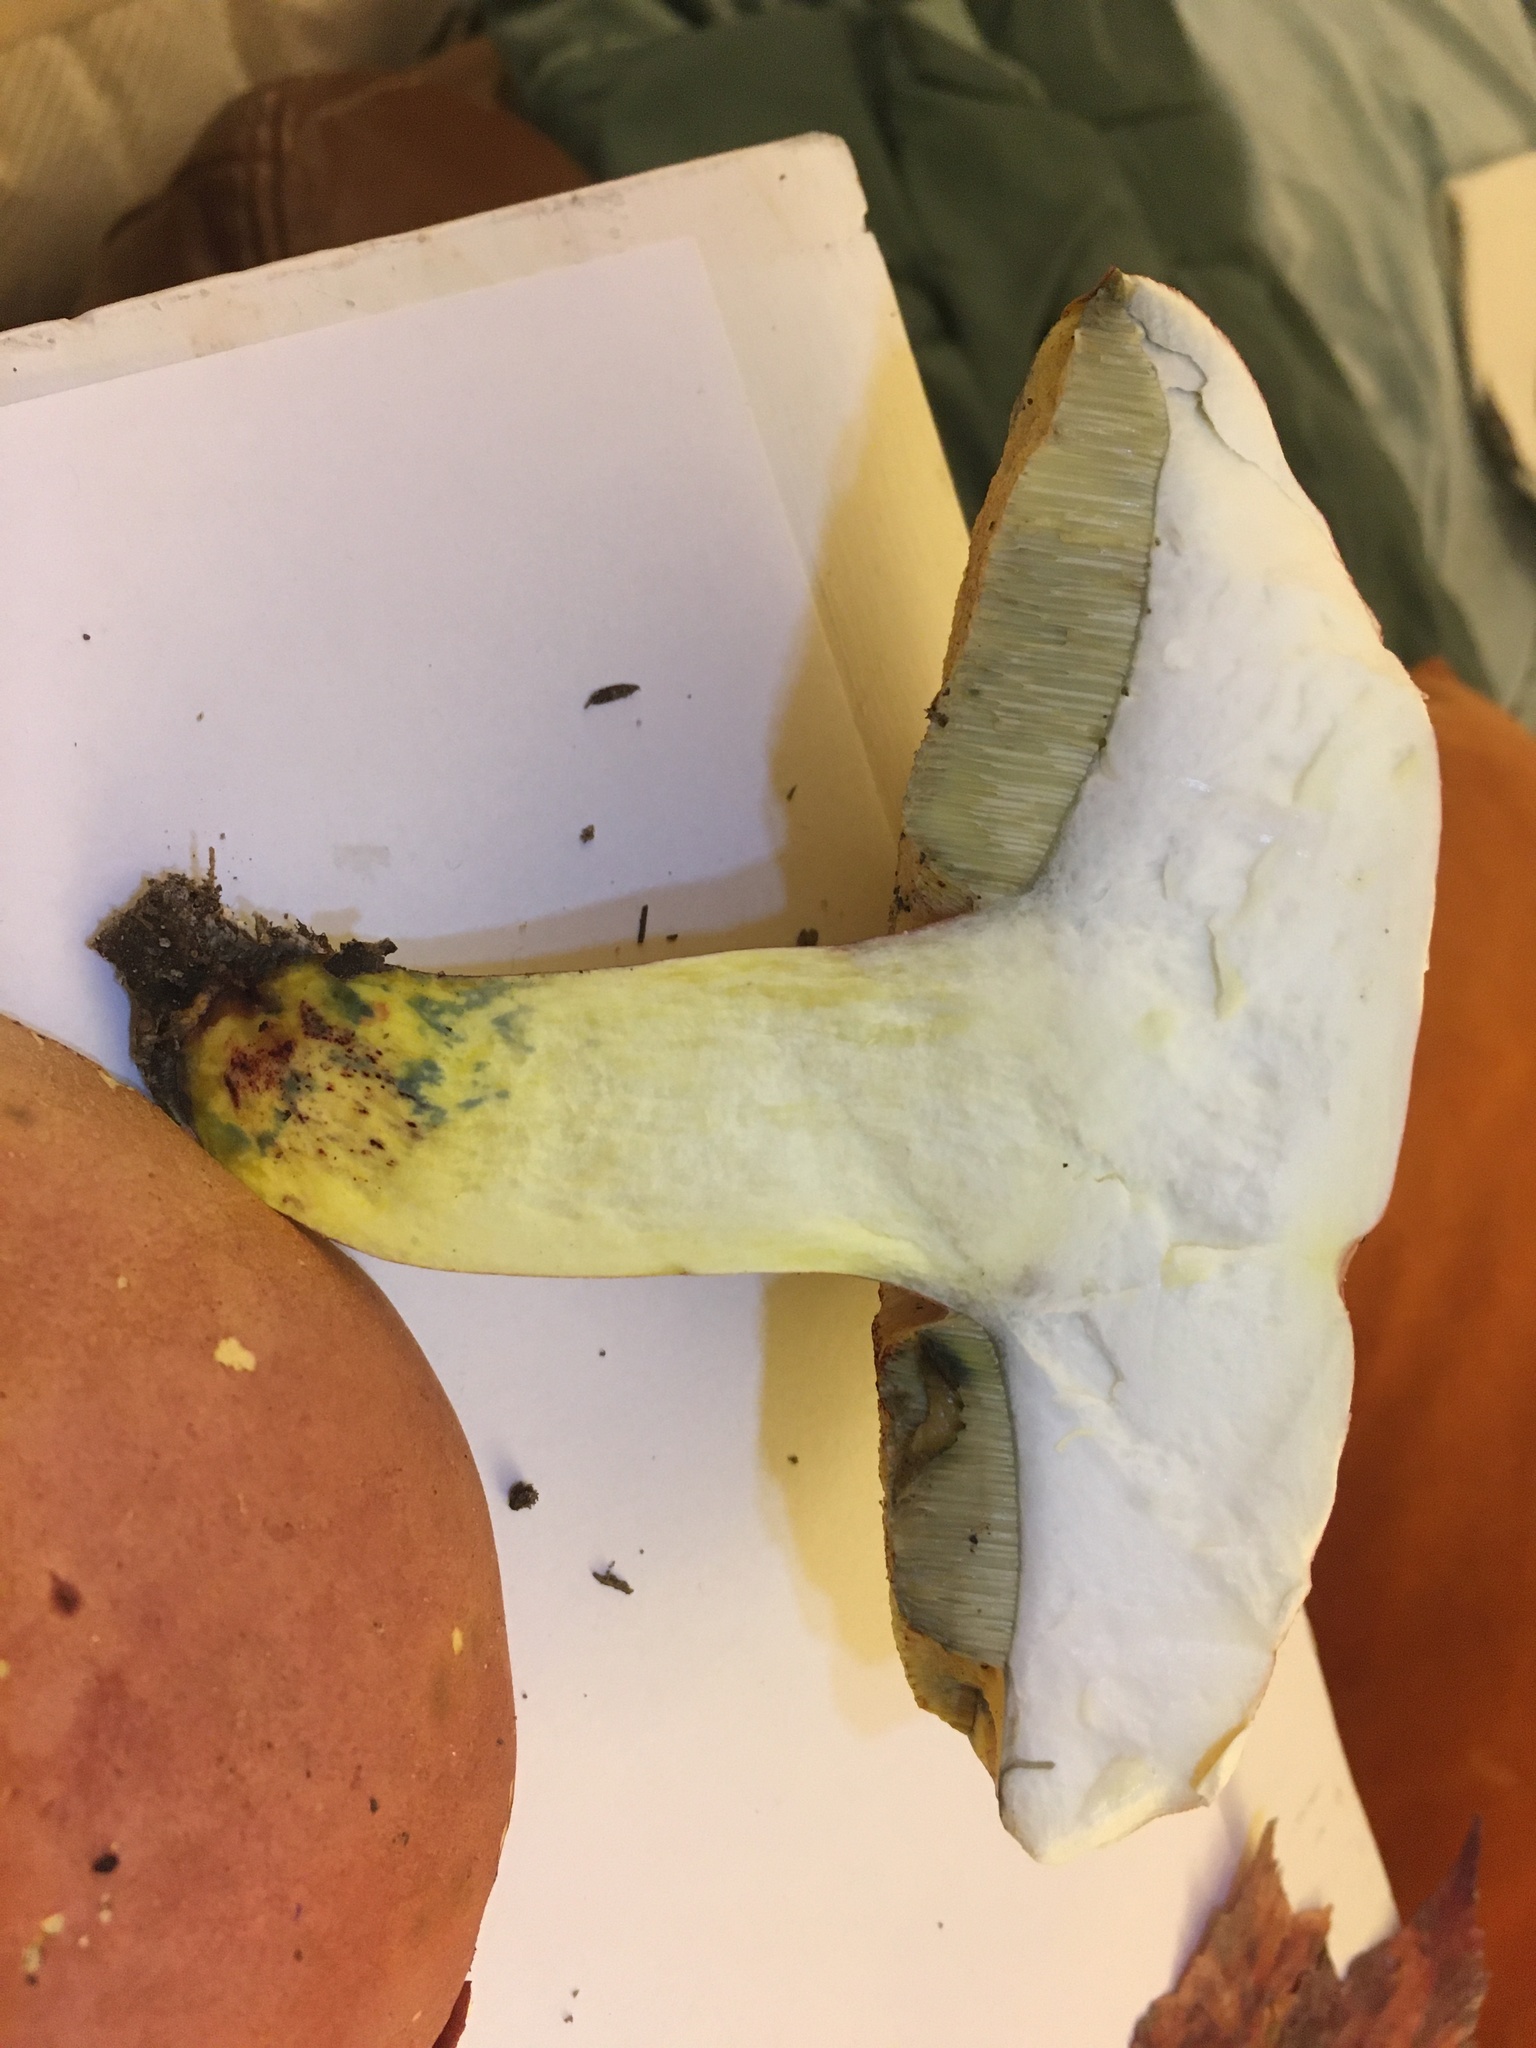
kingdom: Fungi
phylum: Basidiomycota
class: Agaricomycetes
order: Boletales
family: Boletaceae
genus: Lanmaoa
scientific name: Lanmaoa pallidorosea
